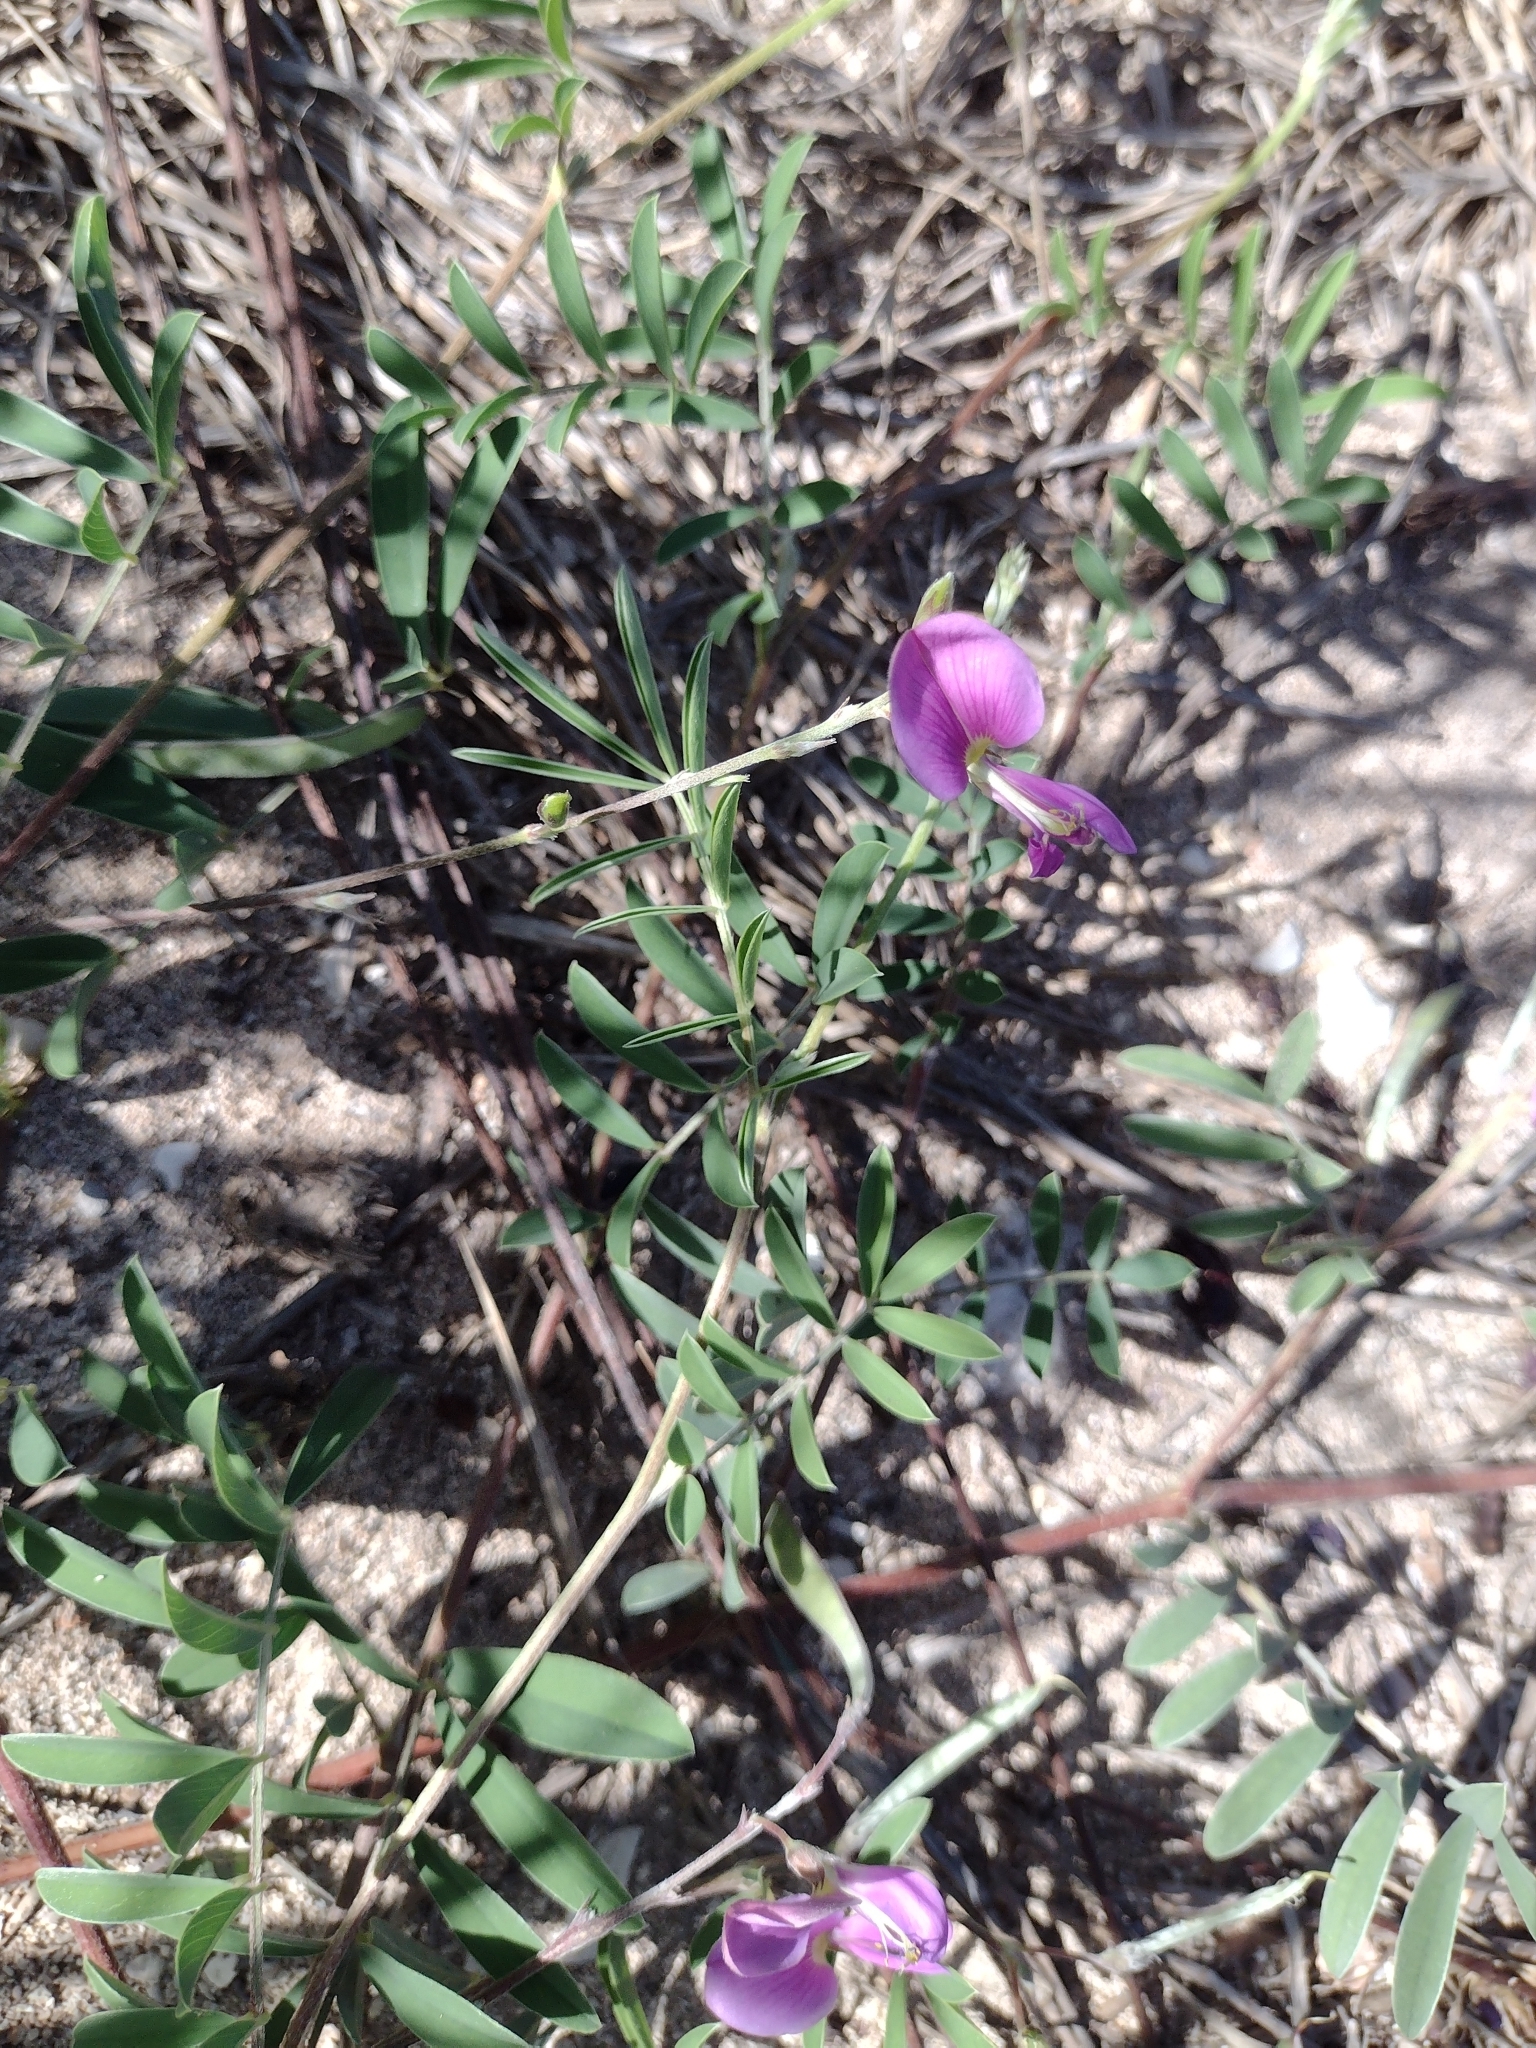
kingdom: Plantae
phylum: Tracheophyta
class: Magnoliopsida
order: Fabales
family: Fabaceae
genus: Tephrosia
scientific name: Tephrosia cinerea
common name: Ashen hoarypea
